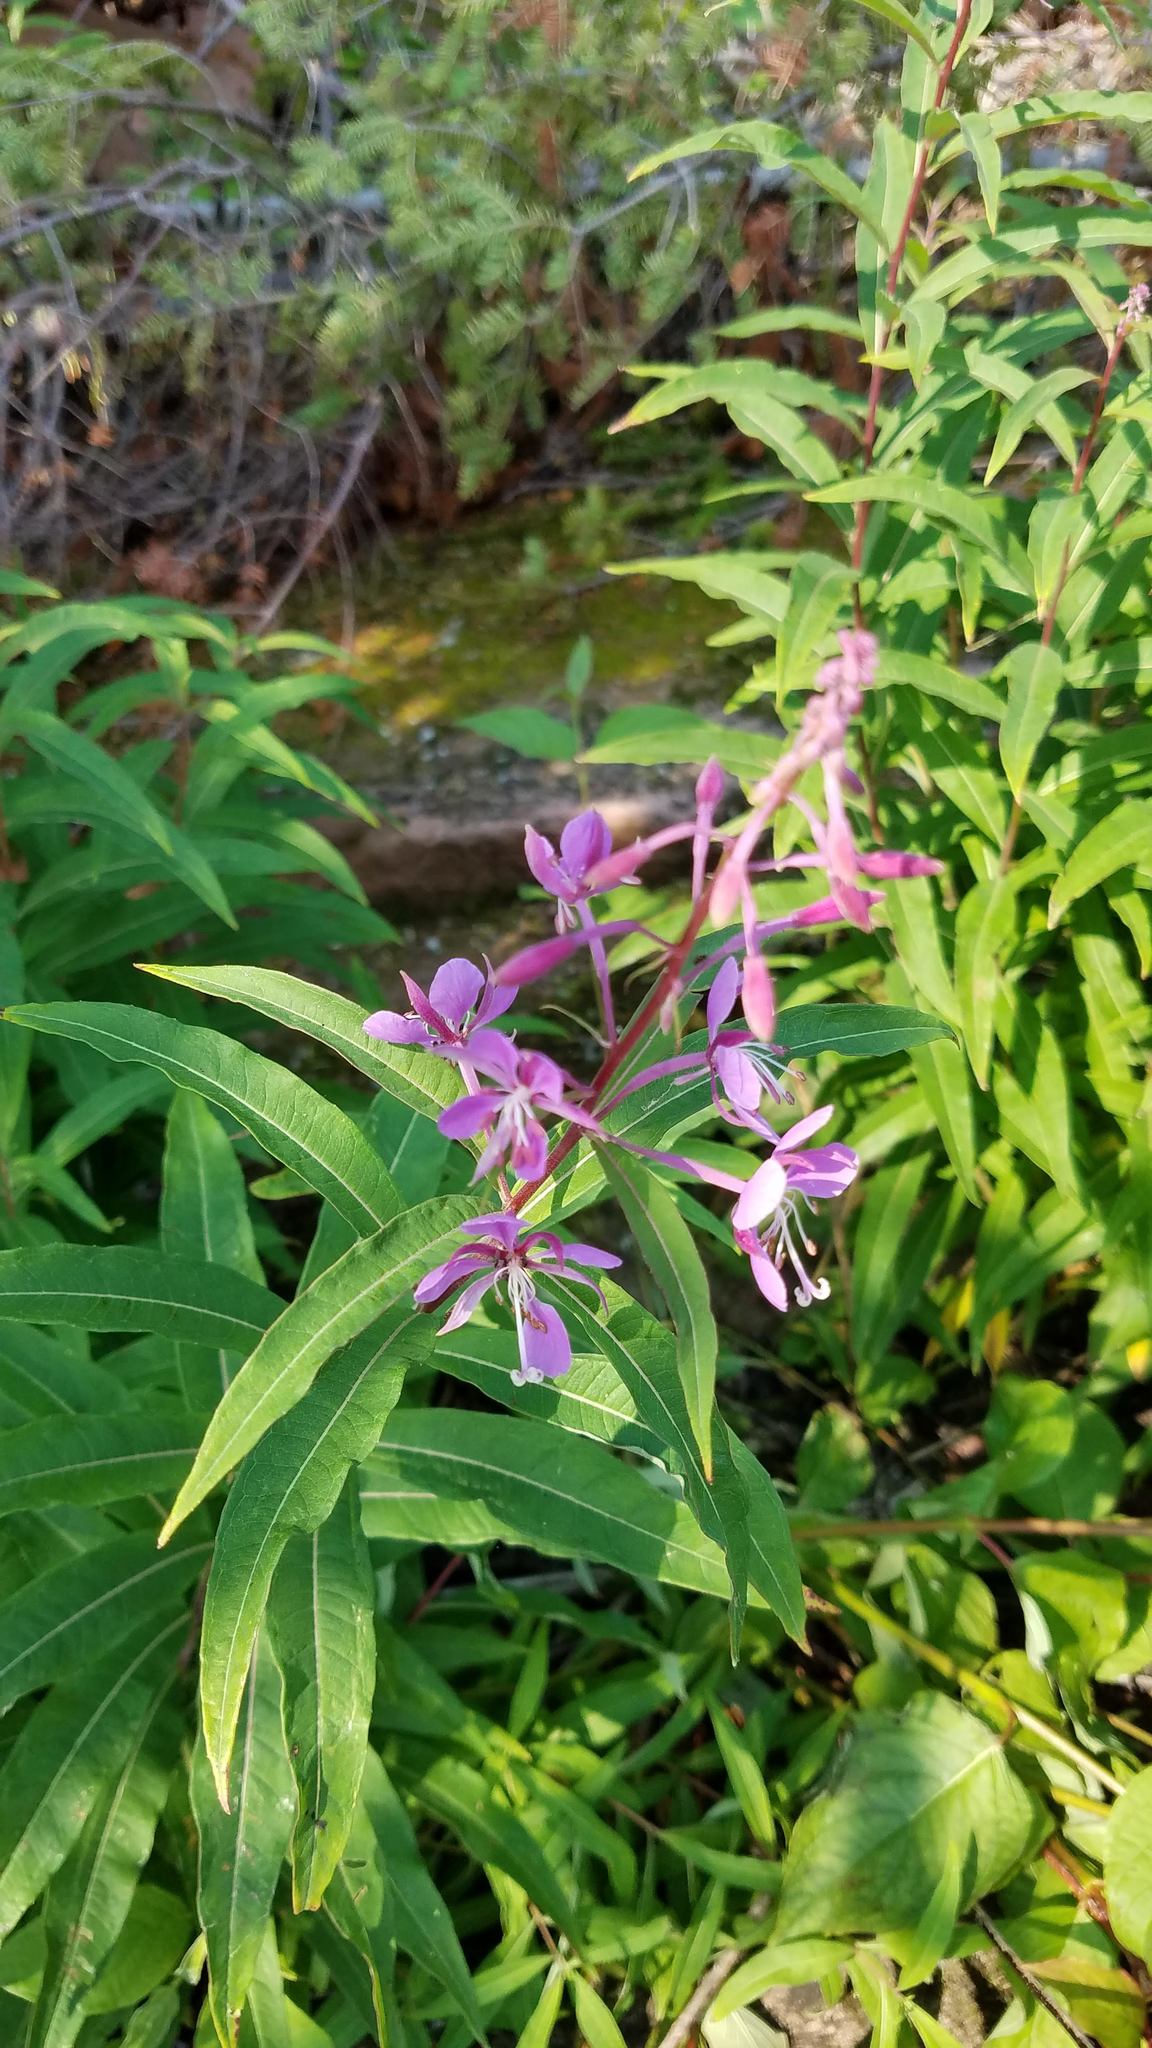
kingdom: Plantae
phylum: Tracheophyta
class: Magnoliopsida
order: Myrtales
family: Onagraceae
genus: Chamaenerion
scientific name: Chamaenerion angustifolium
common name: Fireweed
